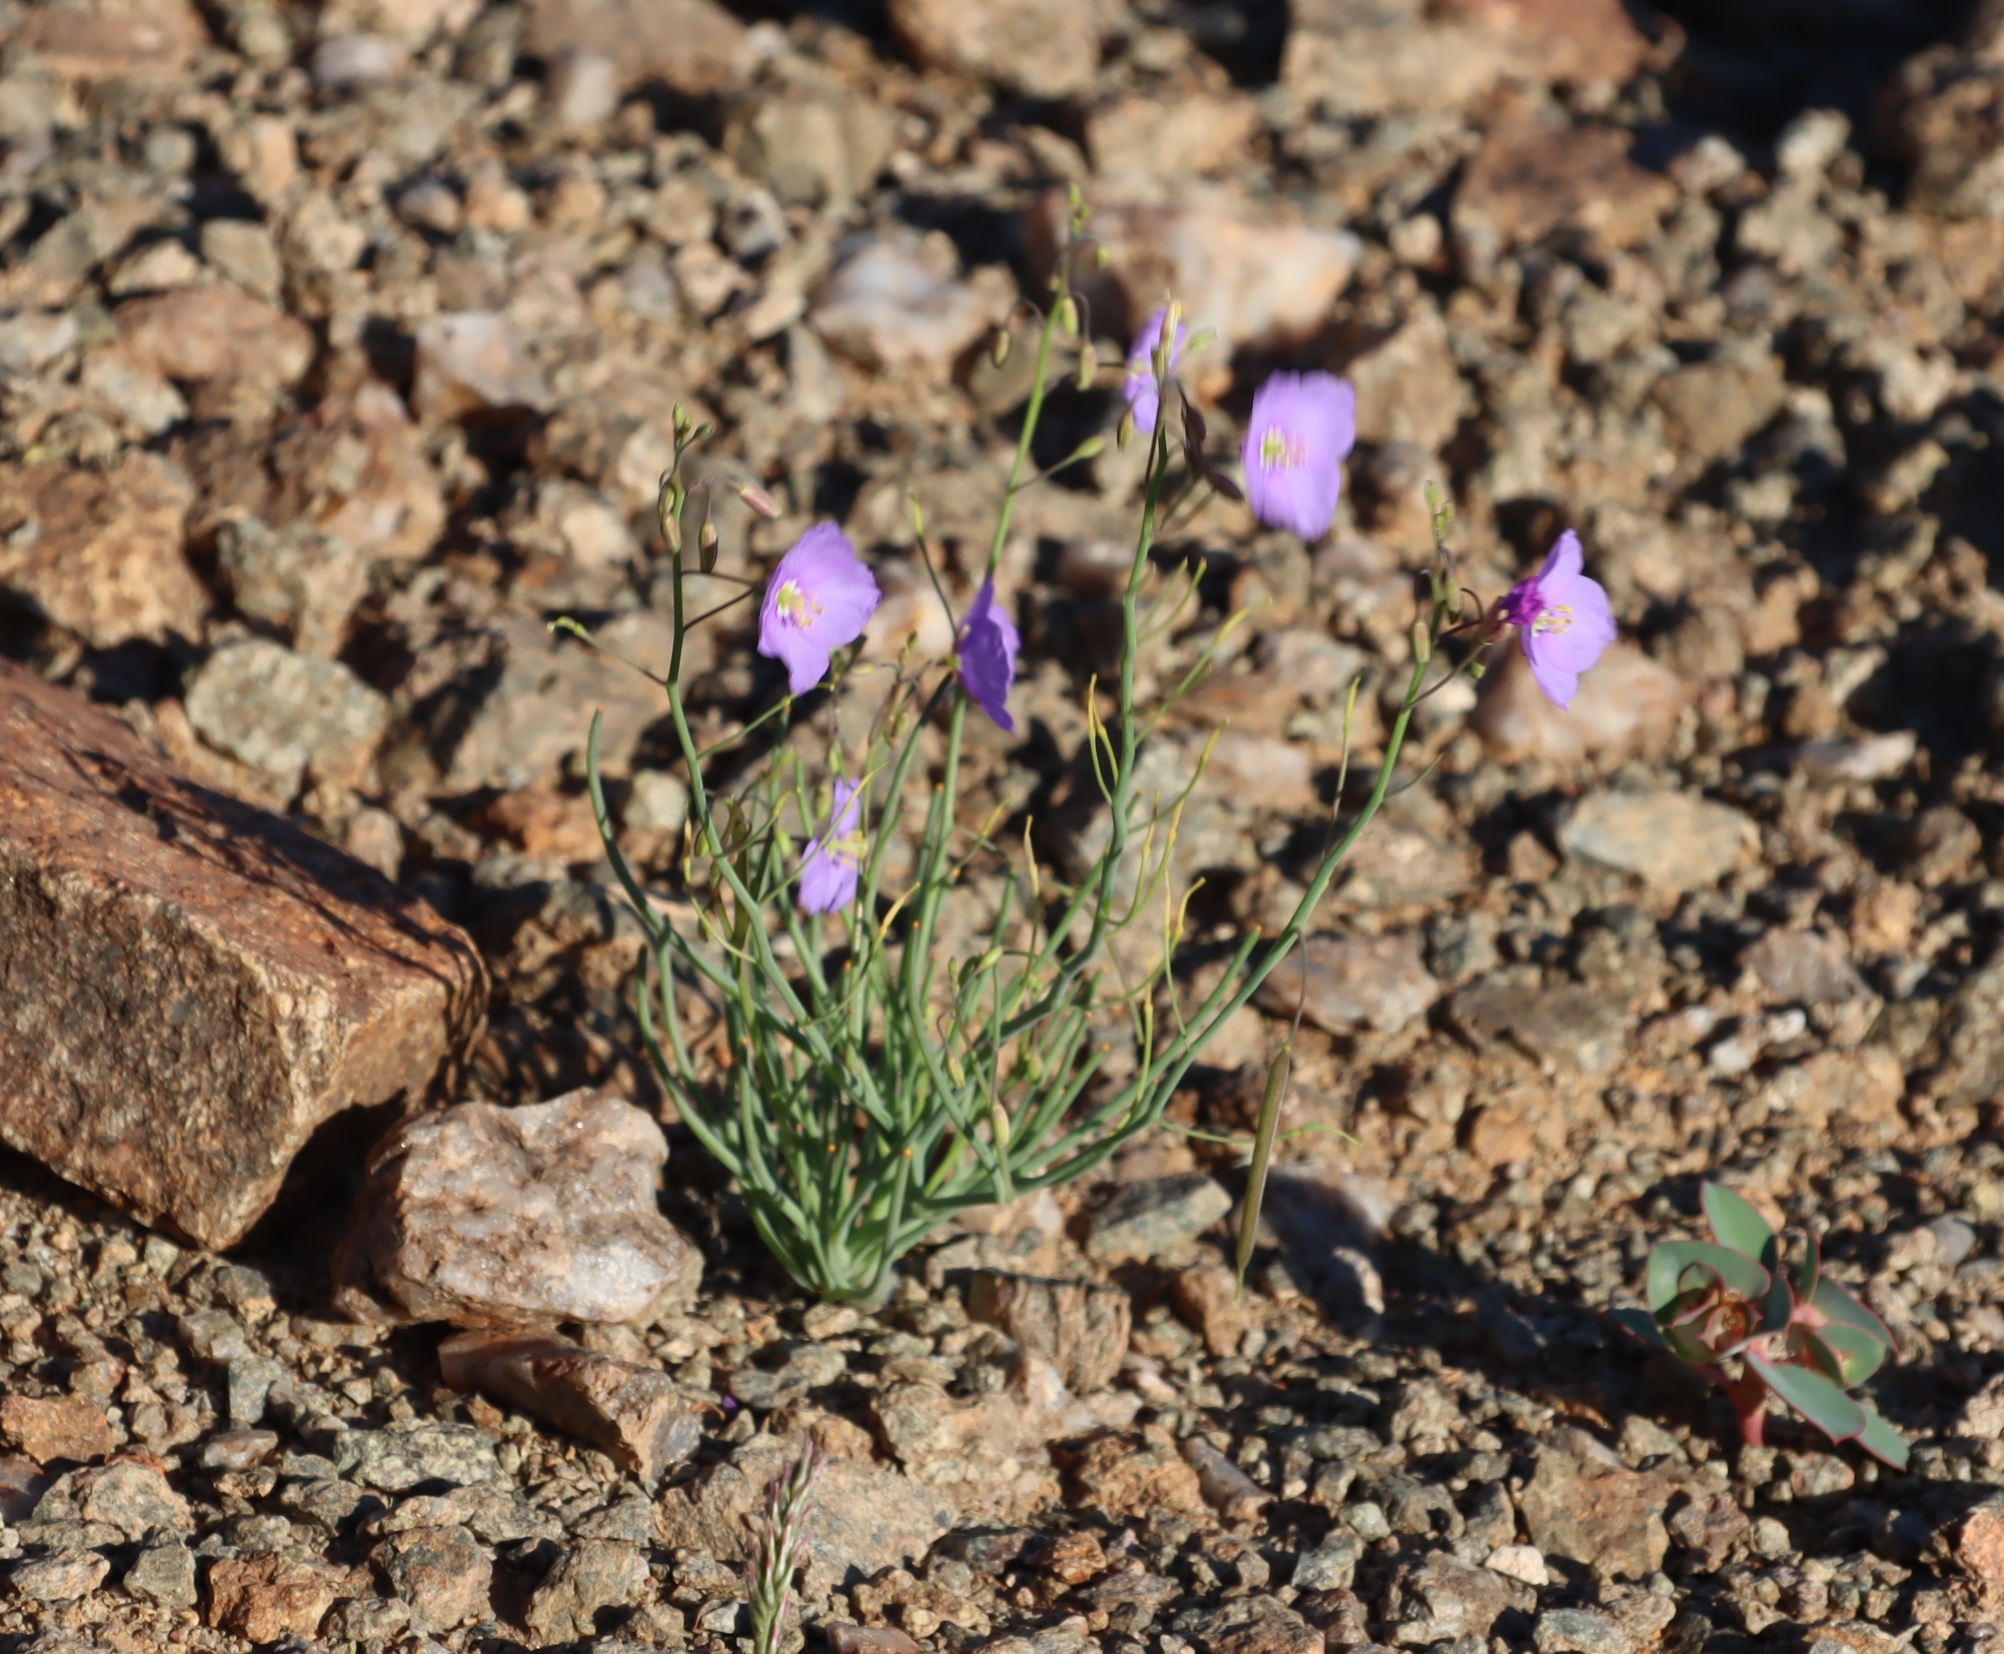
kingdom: Plantae
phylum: Tracheophyta
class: Magnoliopsida
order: Brassicales
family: Brassicaceae
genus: Heliophila
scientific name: Heliophila trifurca
